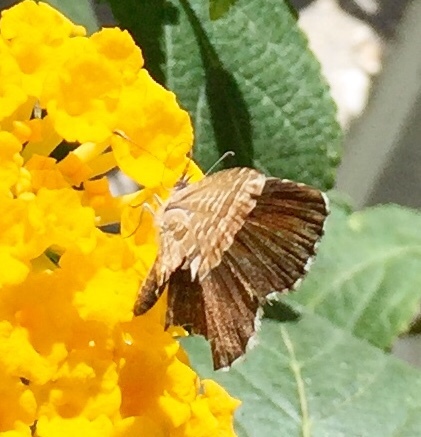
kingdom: Animalia
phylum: Arthropoda
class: Insecta
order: Lepidoptera
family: Lycaenidae
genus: Cacyreus
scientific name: Cacyreus marshalli
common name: Geranium bronze
